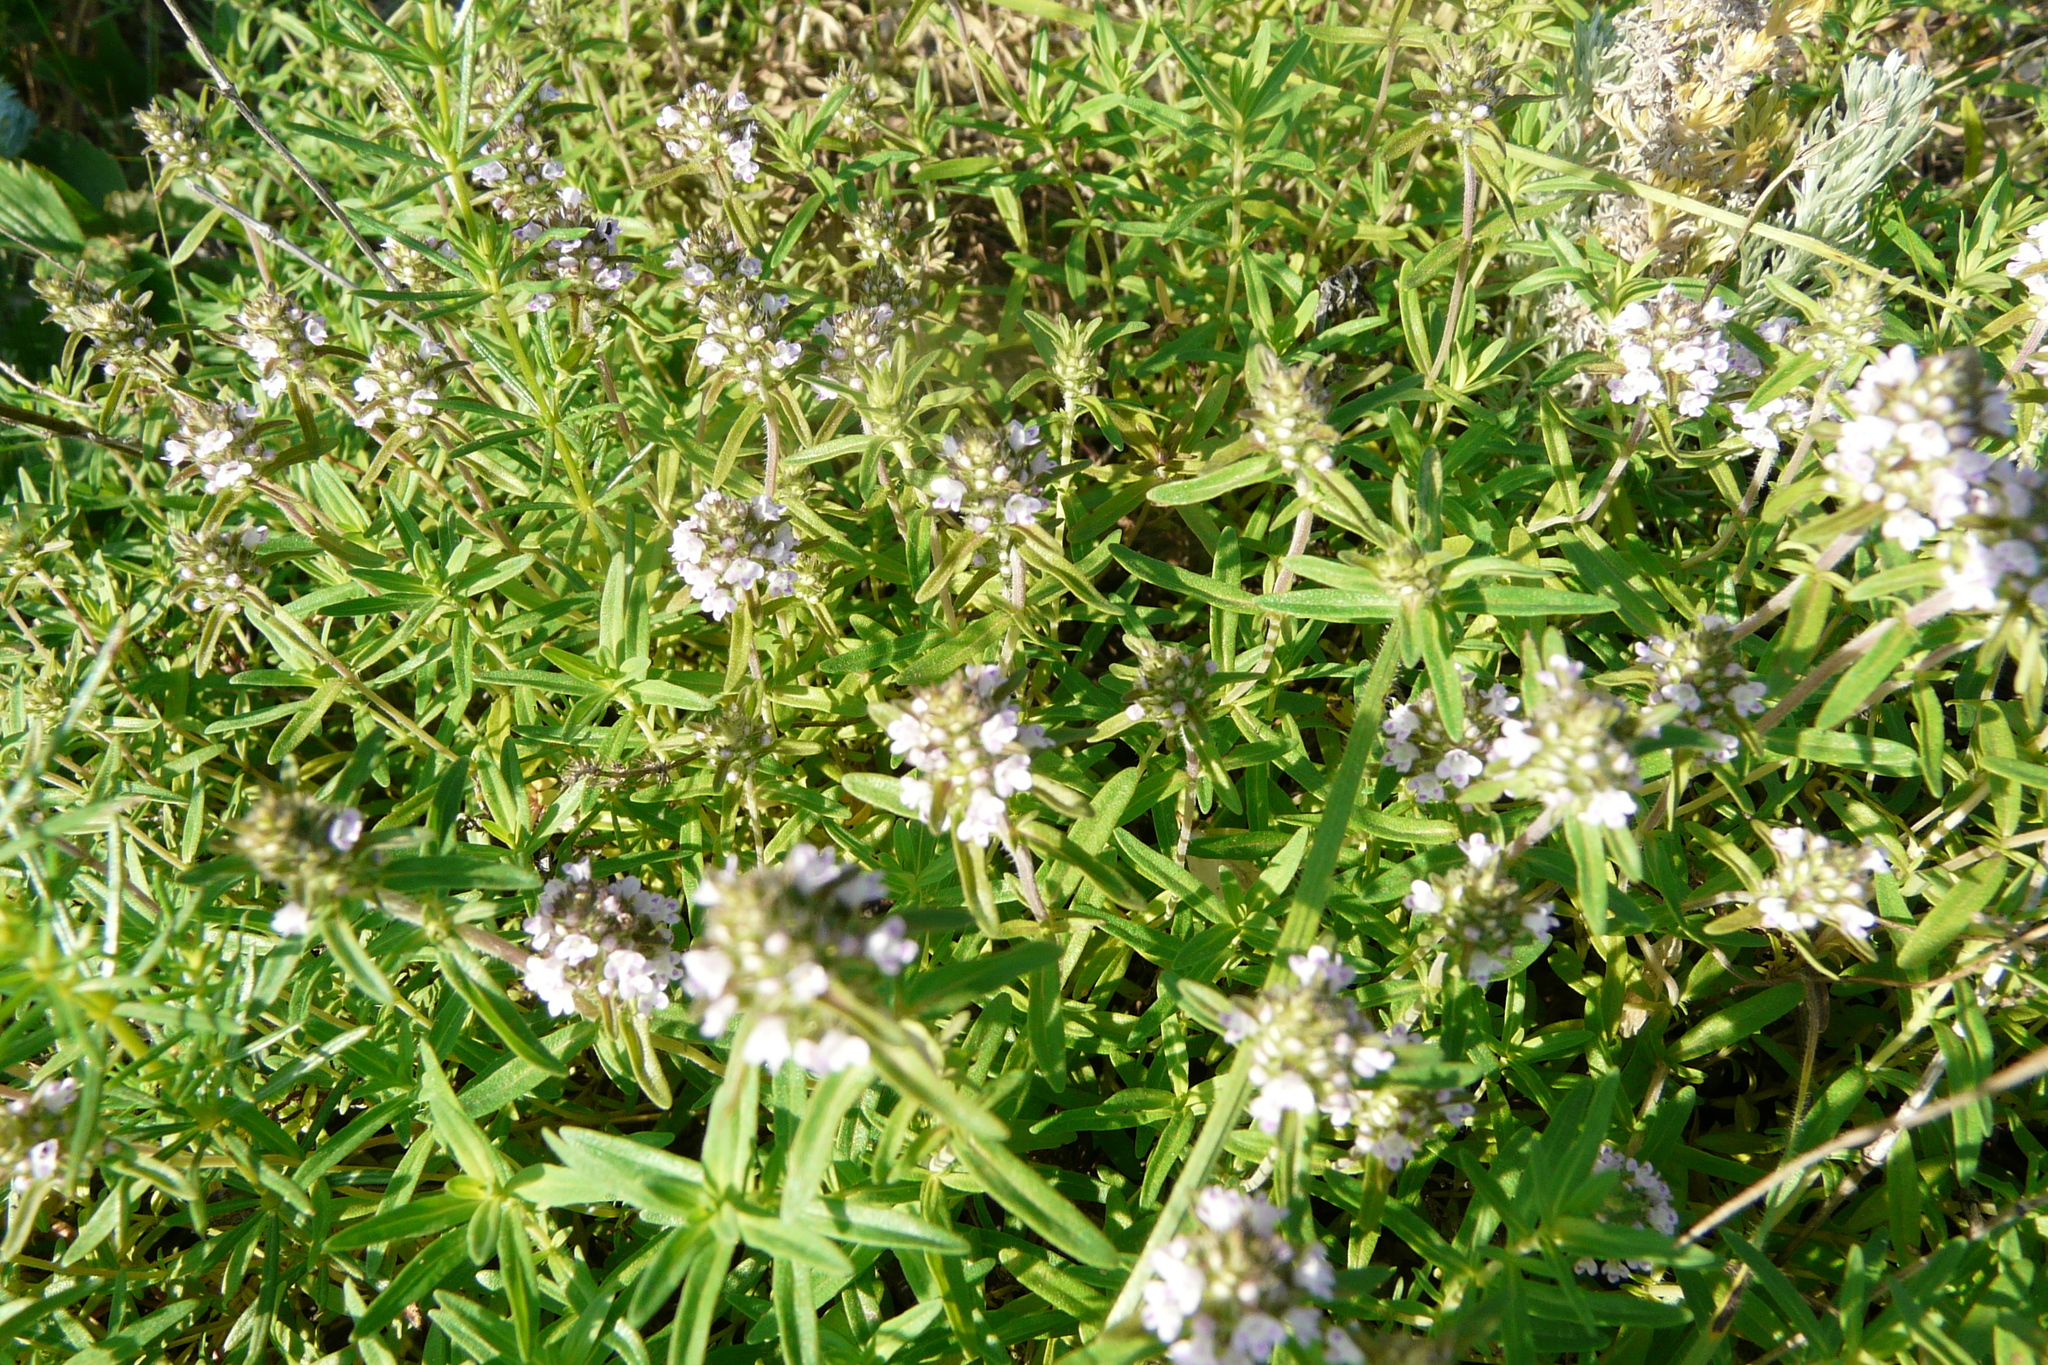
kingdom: Plantae
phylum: Tracheophyta
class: Magnoliopsida
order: Lamiales
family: Lamiaceae
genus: Thymus
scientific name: Thymus pannonicus
